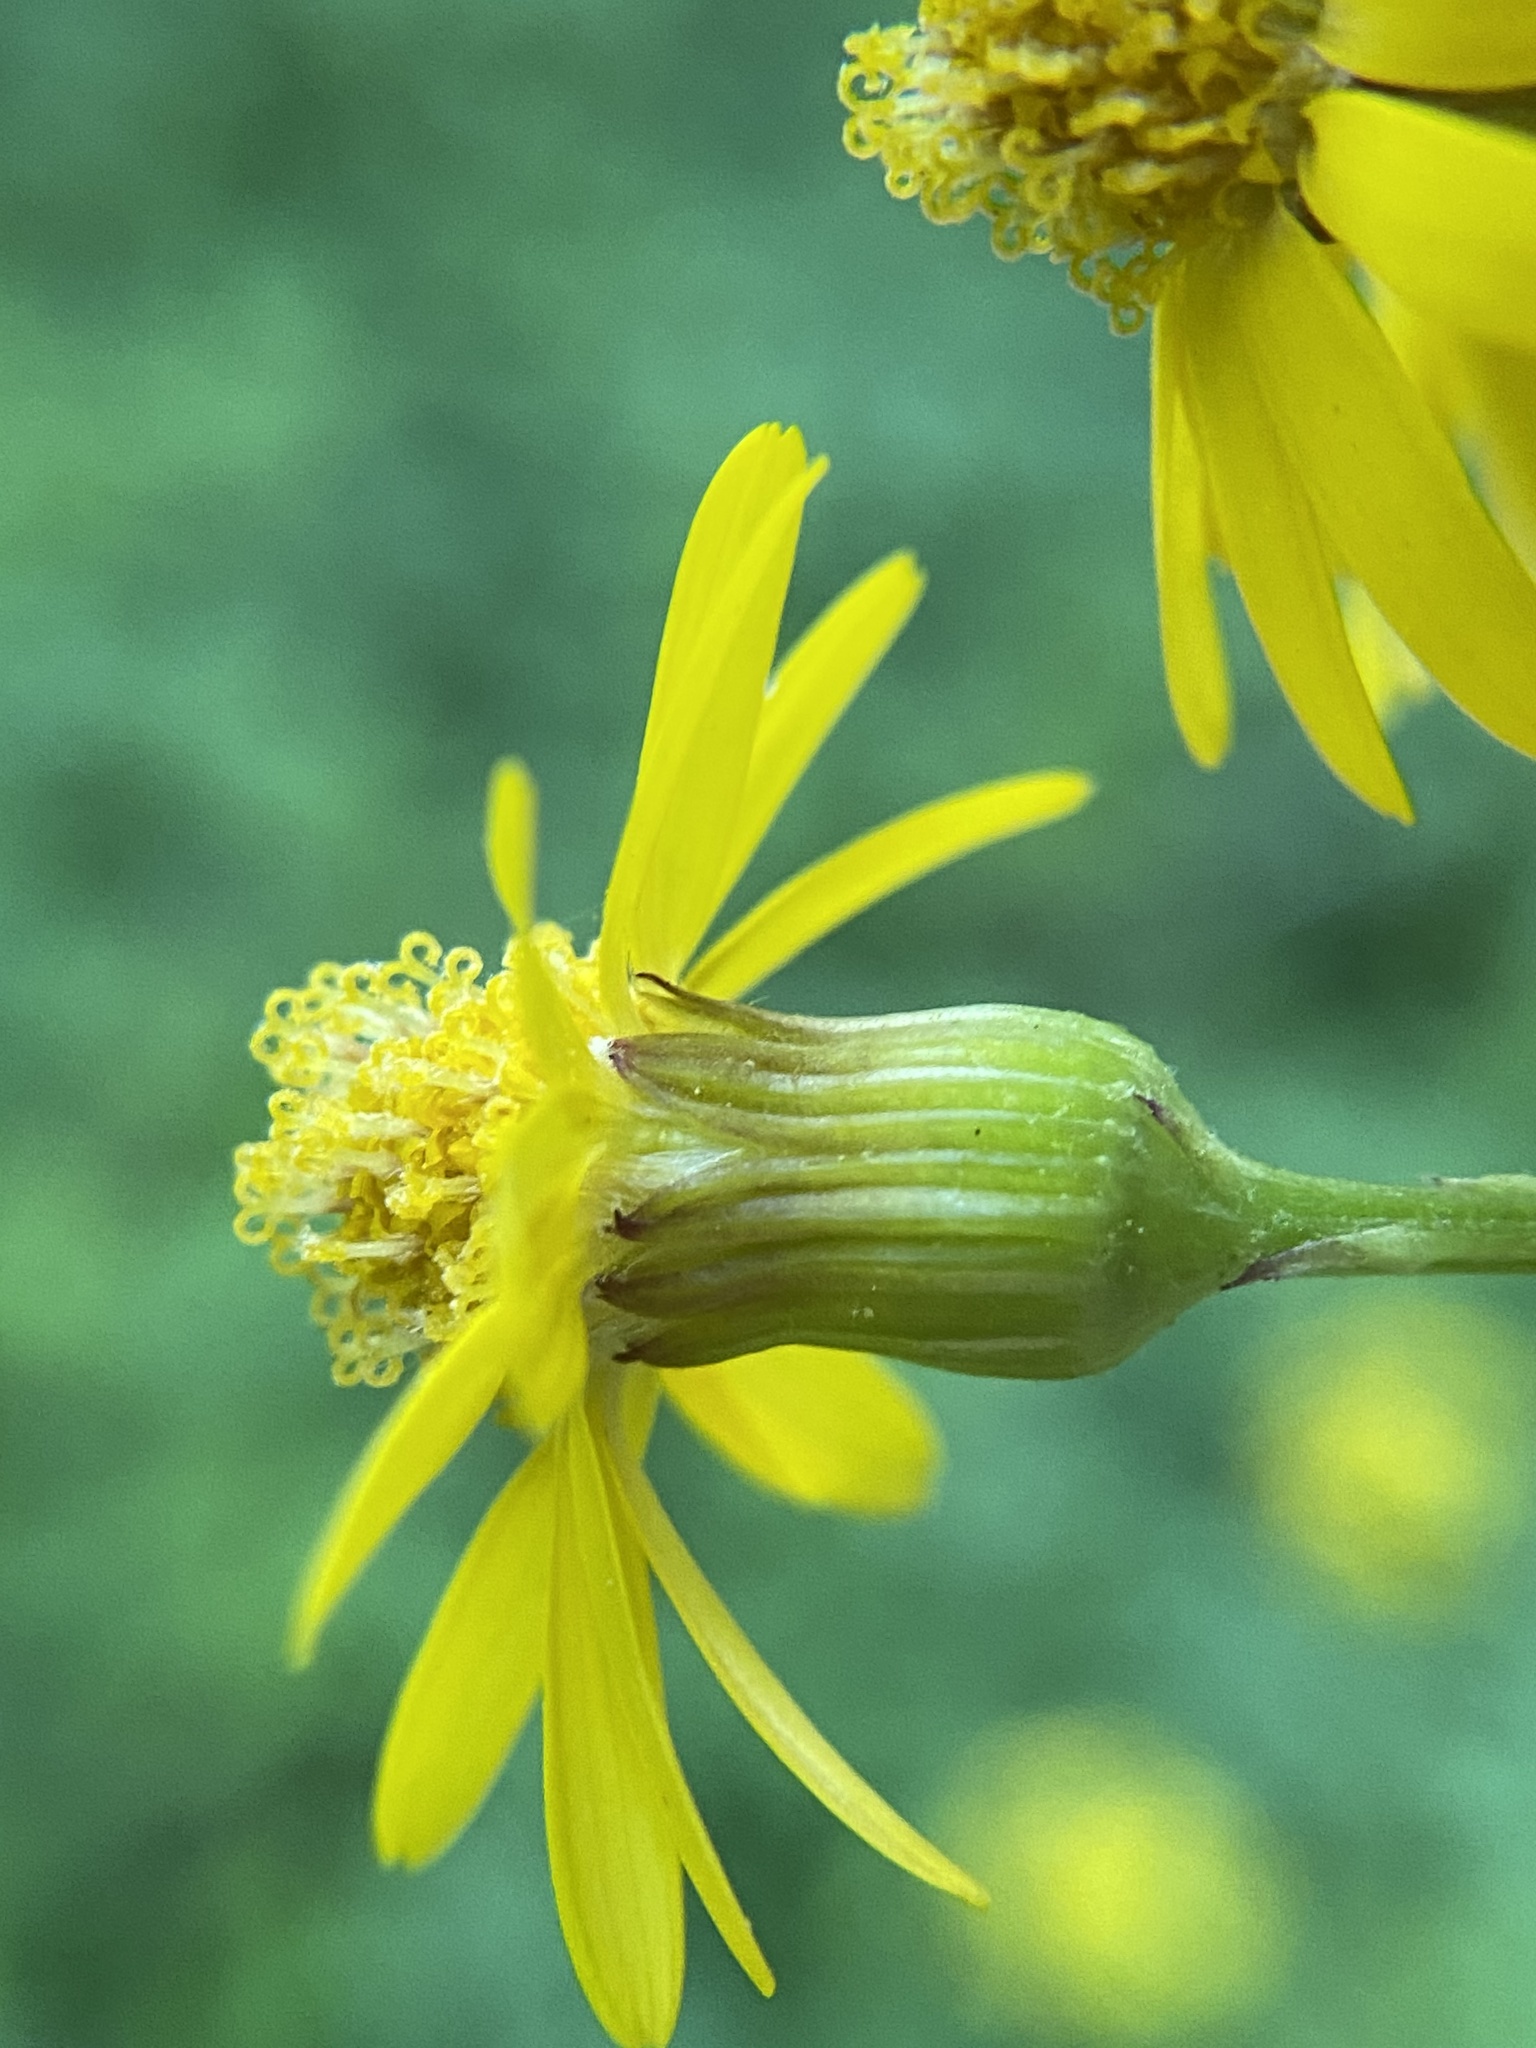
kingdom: Plantae
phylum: Tracheophyta
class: Magnoliopsida
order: Asterales
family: Asteraceae
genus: Packera
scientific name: Packera obovata
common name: Round-leaf ragwort
